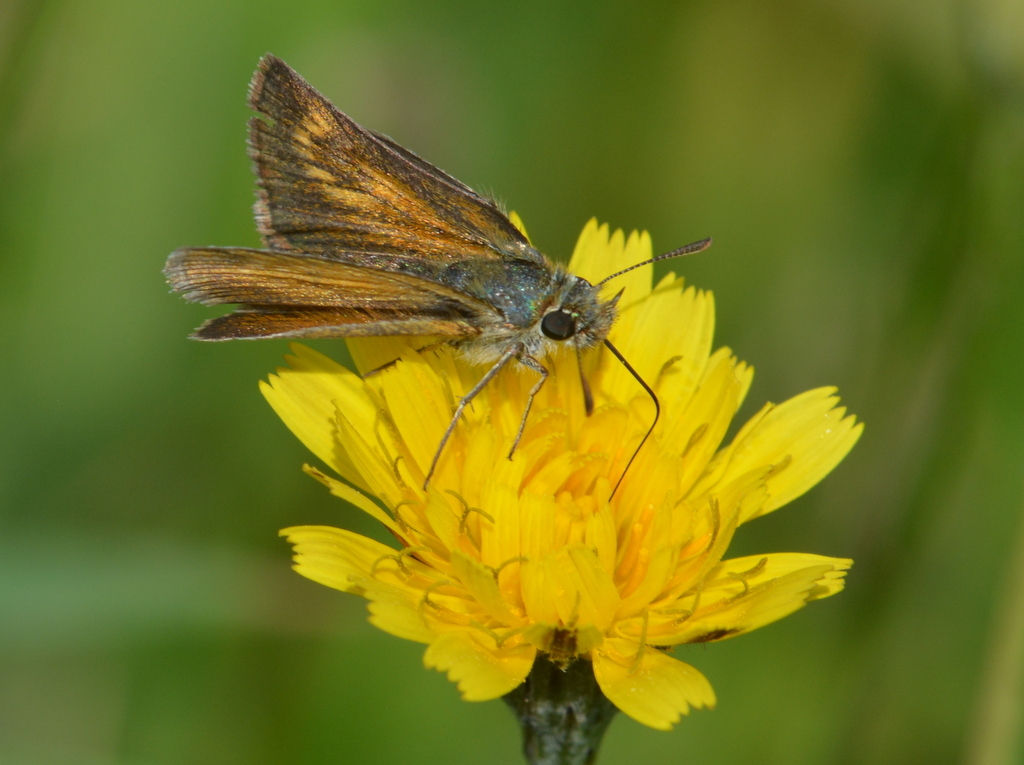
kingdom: Animalia
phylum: Arthropoda
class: Insecta
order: Lepidoptera
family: Hesperiidae
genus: Thymelicus
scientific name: Thymelicus acteon
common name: Lulworth skipper
